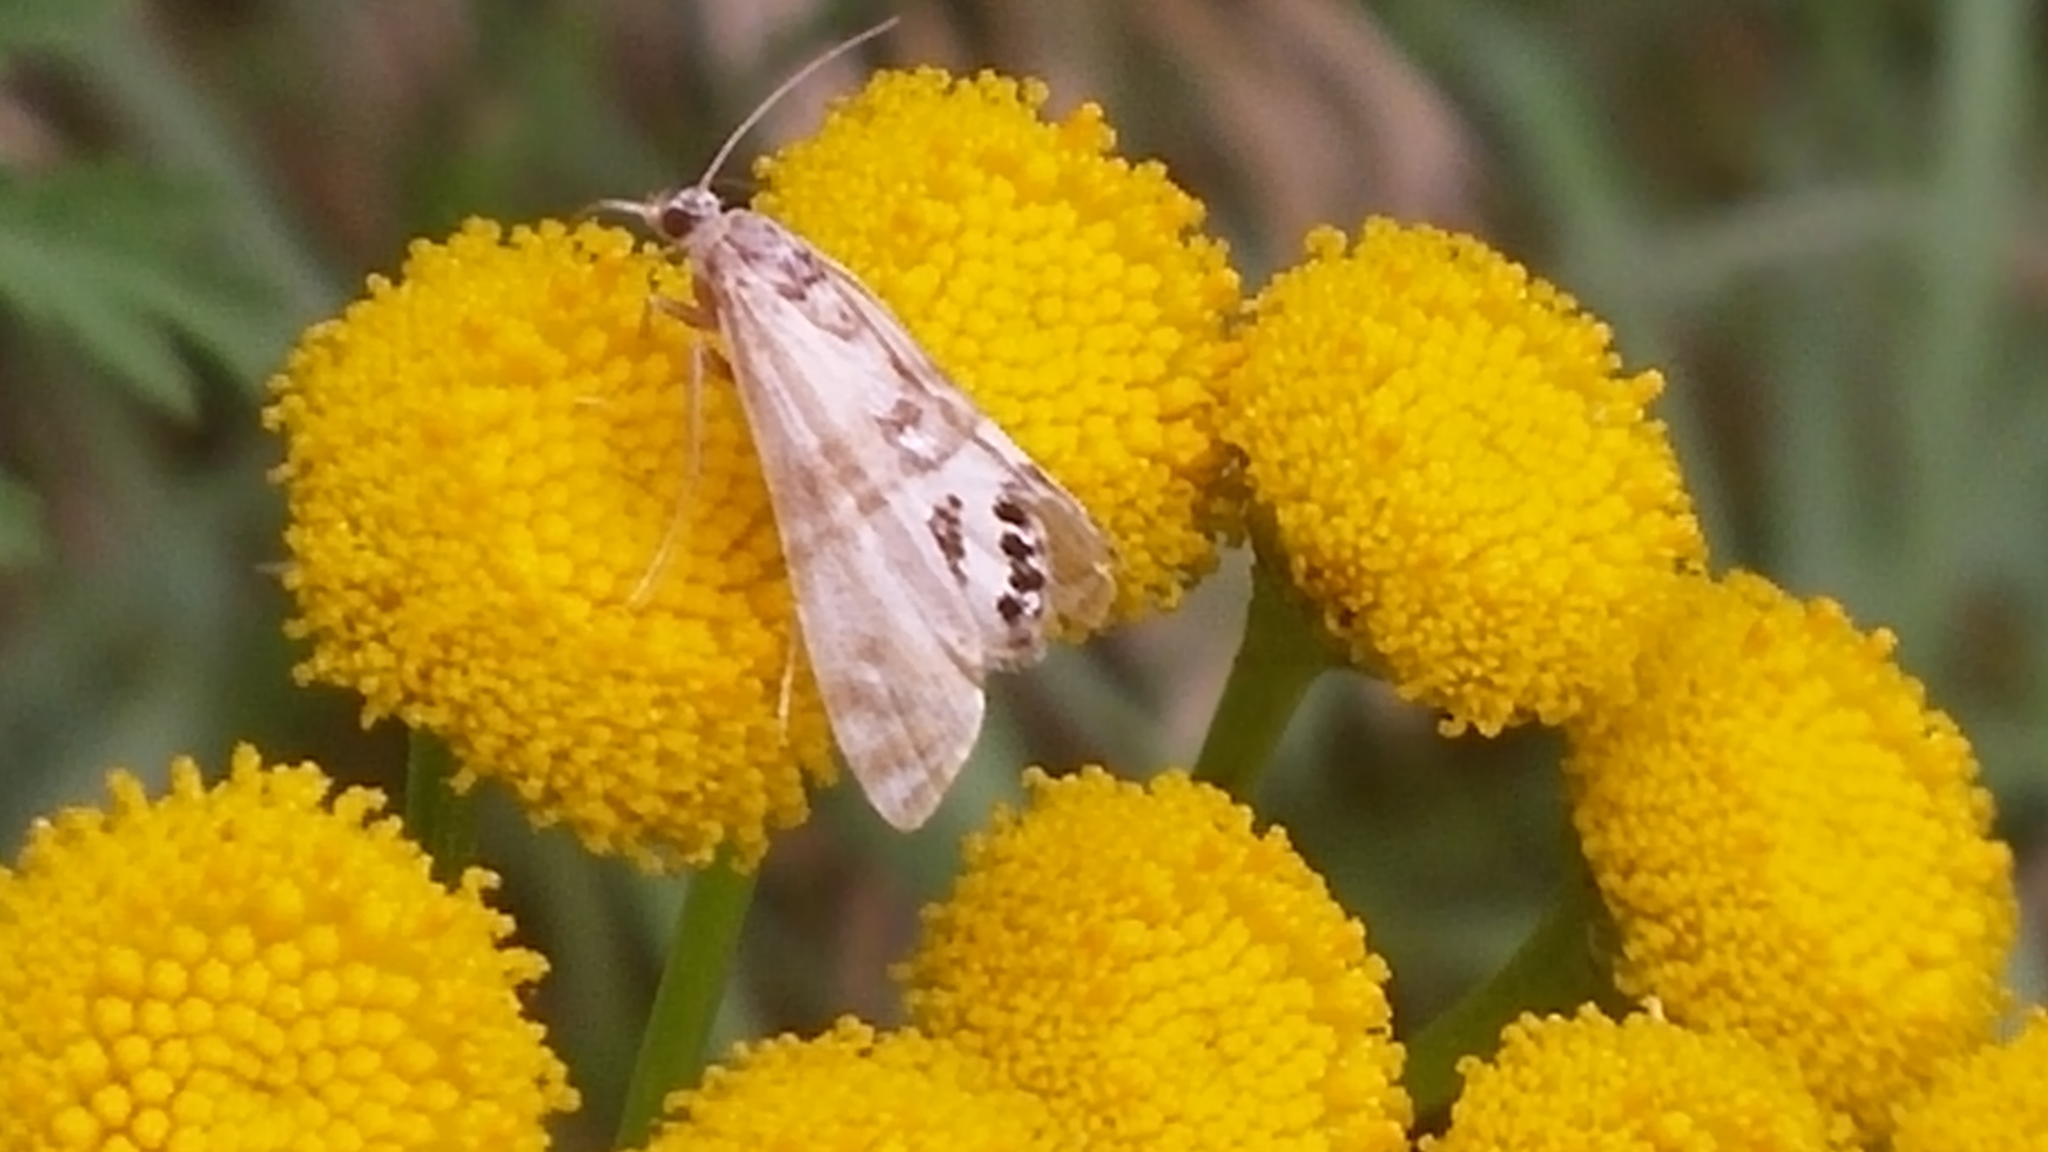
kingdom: Animalia
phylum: Arthropoda
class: Insecta
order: Lepidoptera
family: Crambidae
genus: Petrophila
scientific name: Petrophila bifascialis
